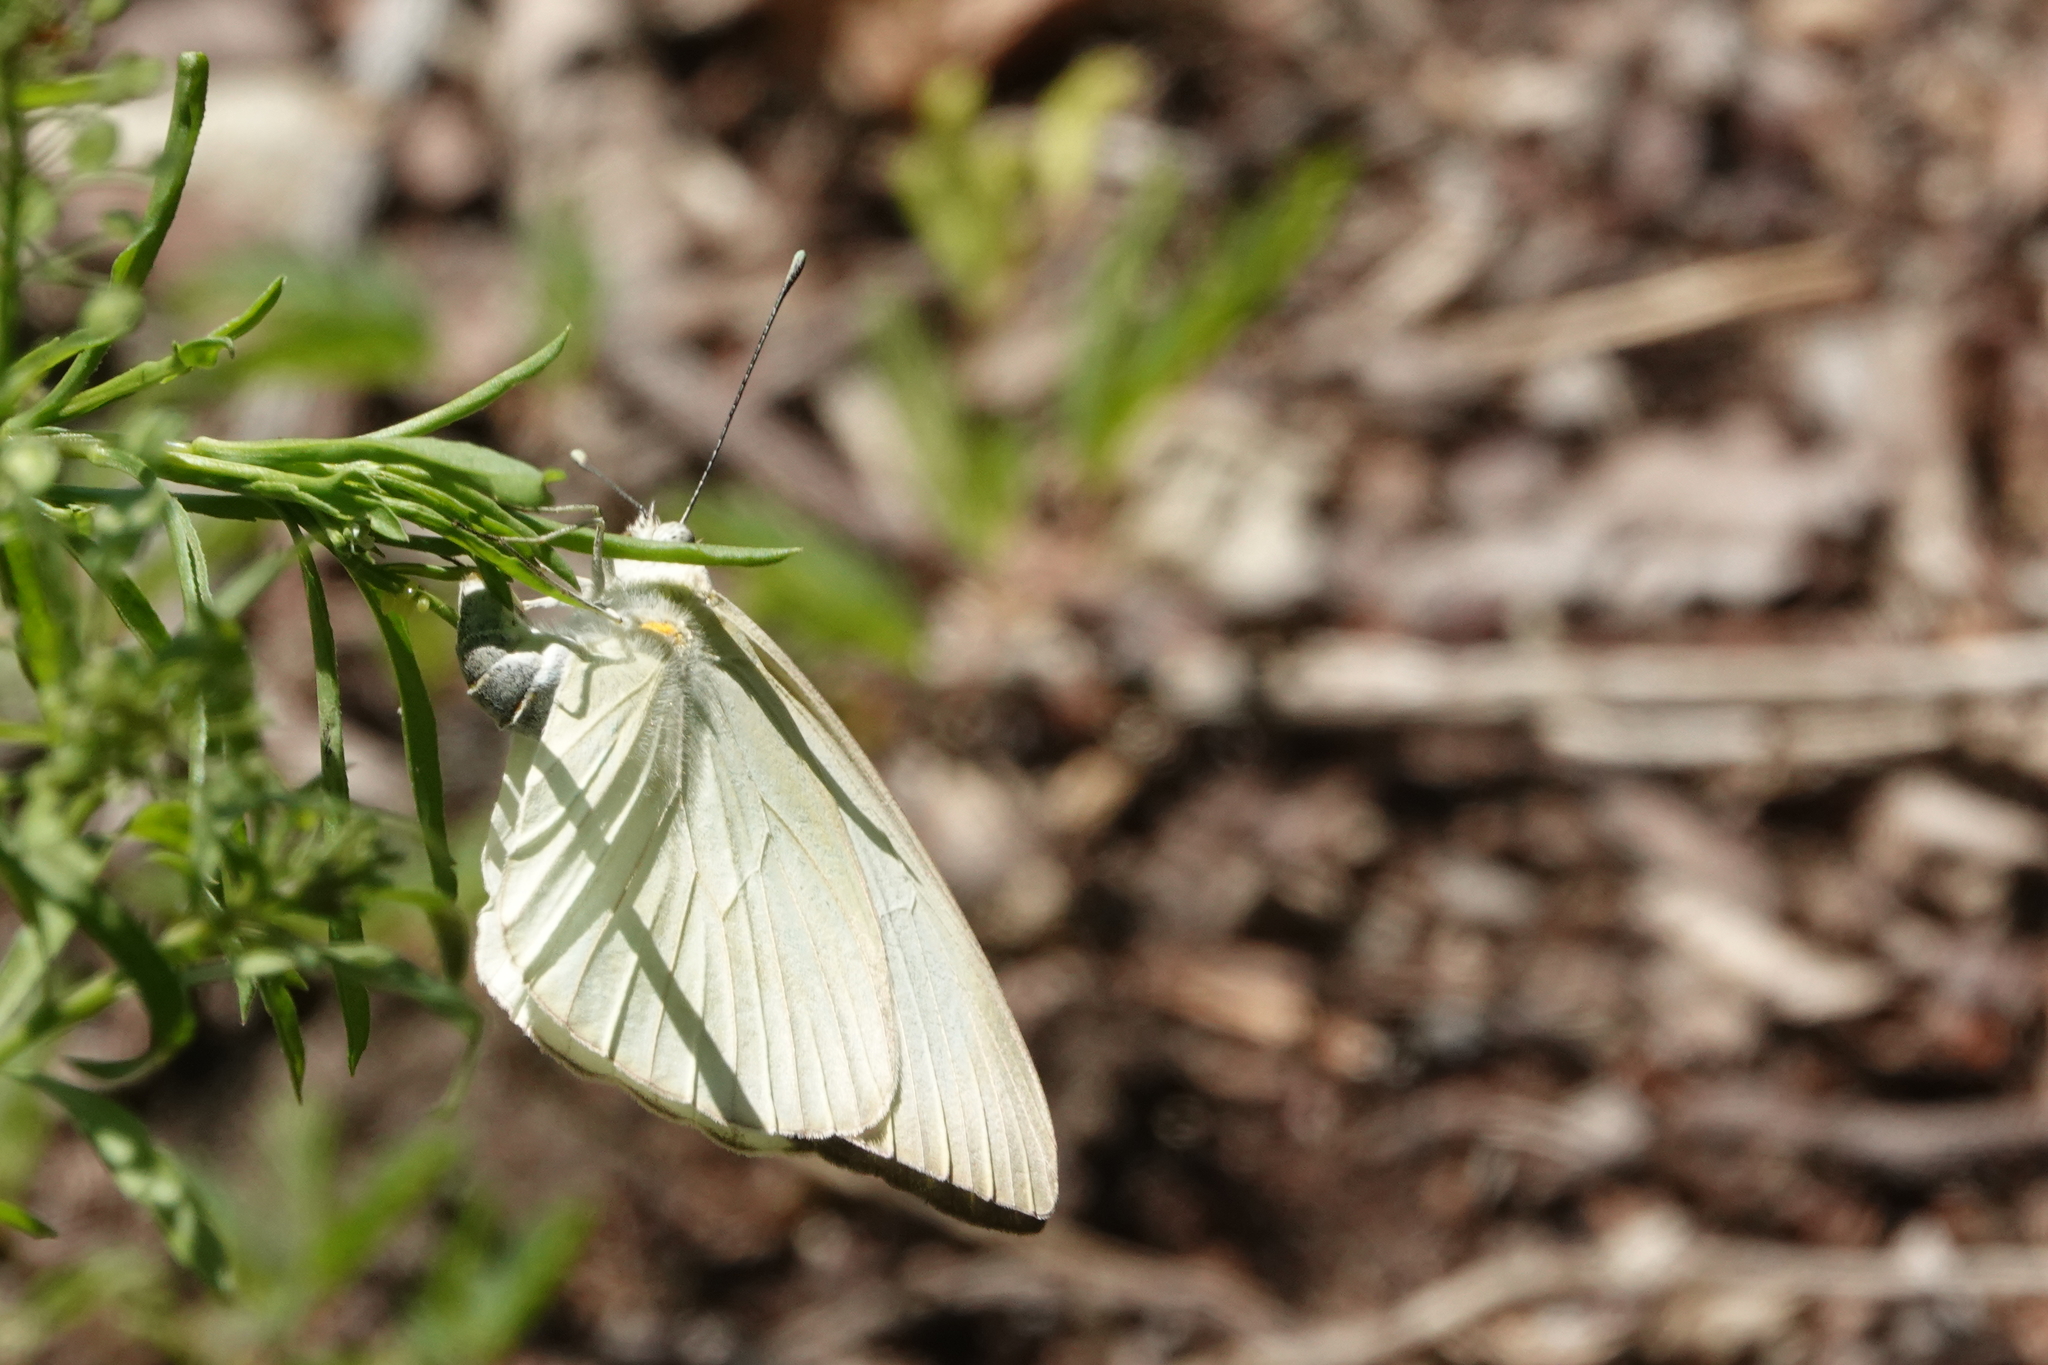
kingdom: Animalia
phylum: Arthropoda
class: Insecta
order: Lepidoptera
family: Pieridae
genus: Ascia
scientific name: Ascia monuste
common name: Great southern white
